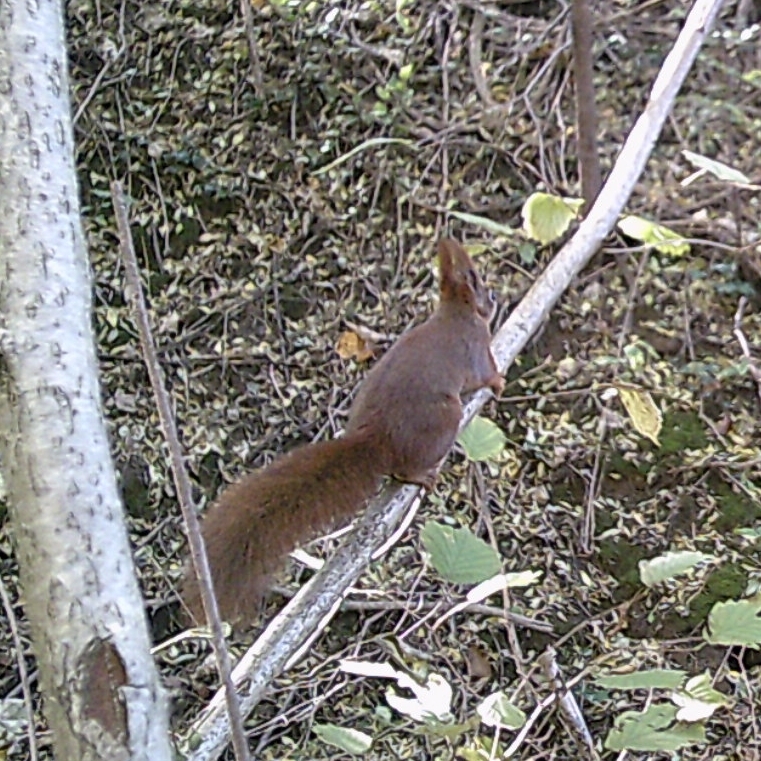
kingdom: Animalia
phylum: Chordata
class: Mammalia
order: Rodentia
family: Sciuridae
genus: Sciurus
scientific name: Sciurus vulgaris
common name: Eurasian red squirrel
